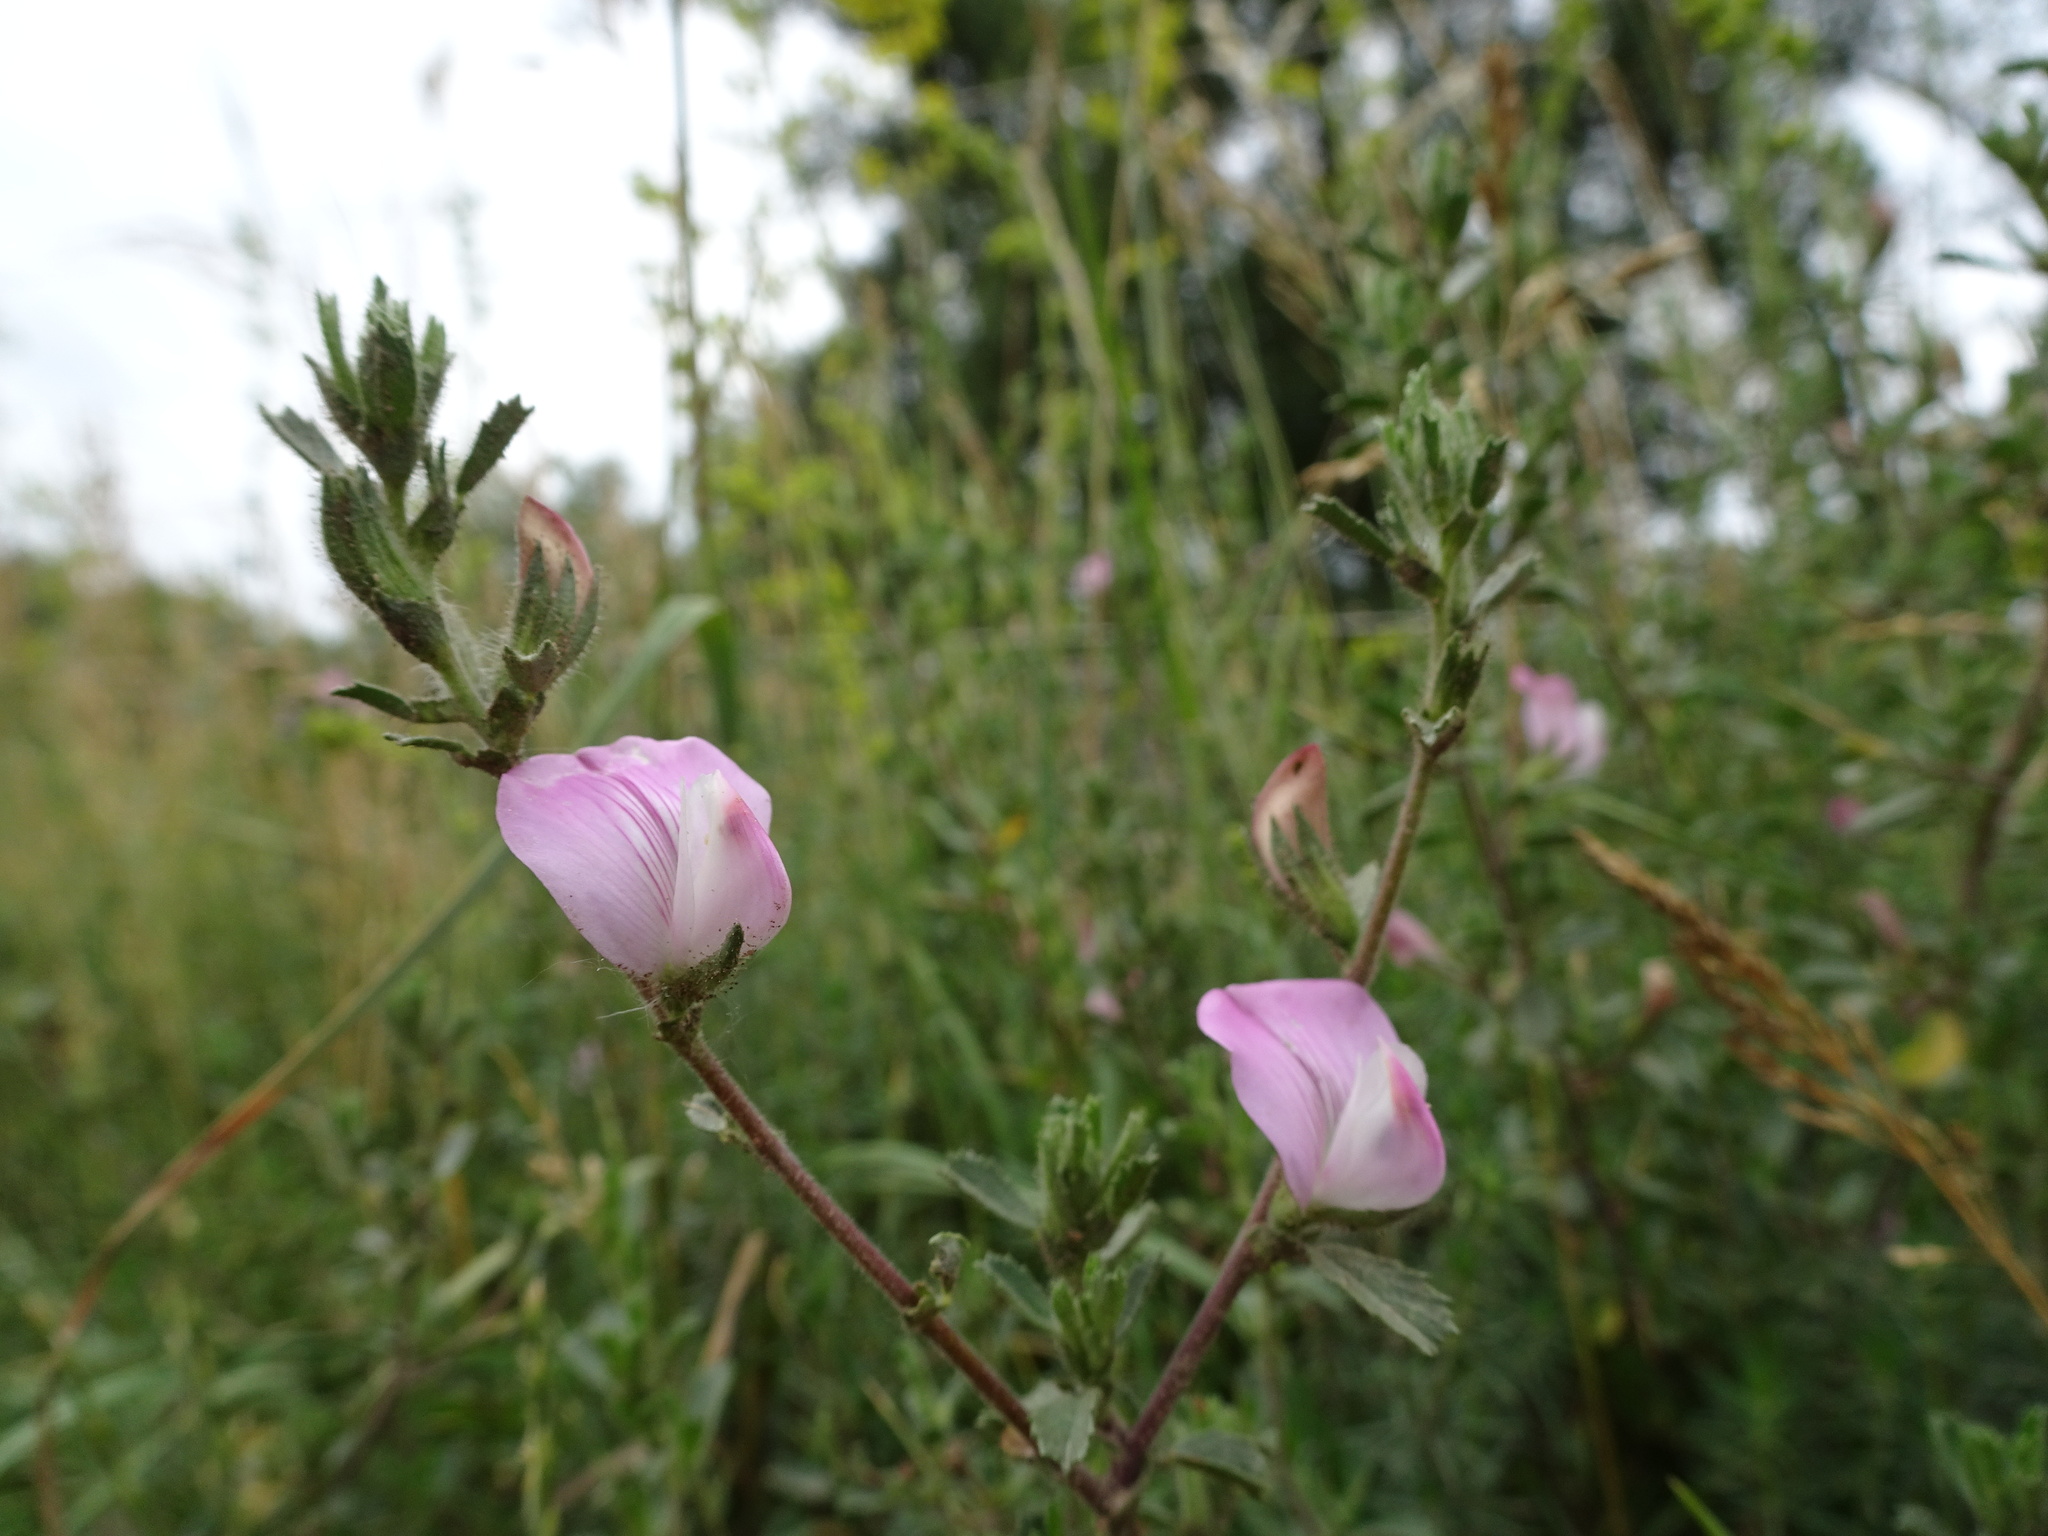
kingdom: Plantae
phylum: Tracheophyta
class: Magnoliopsida
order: Fabales
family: Fabaceae
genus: Ononis
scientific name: Ononis spinosa
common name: Spiny restharrow
